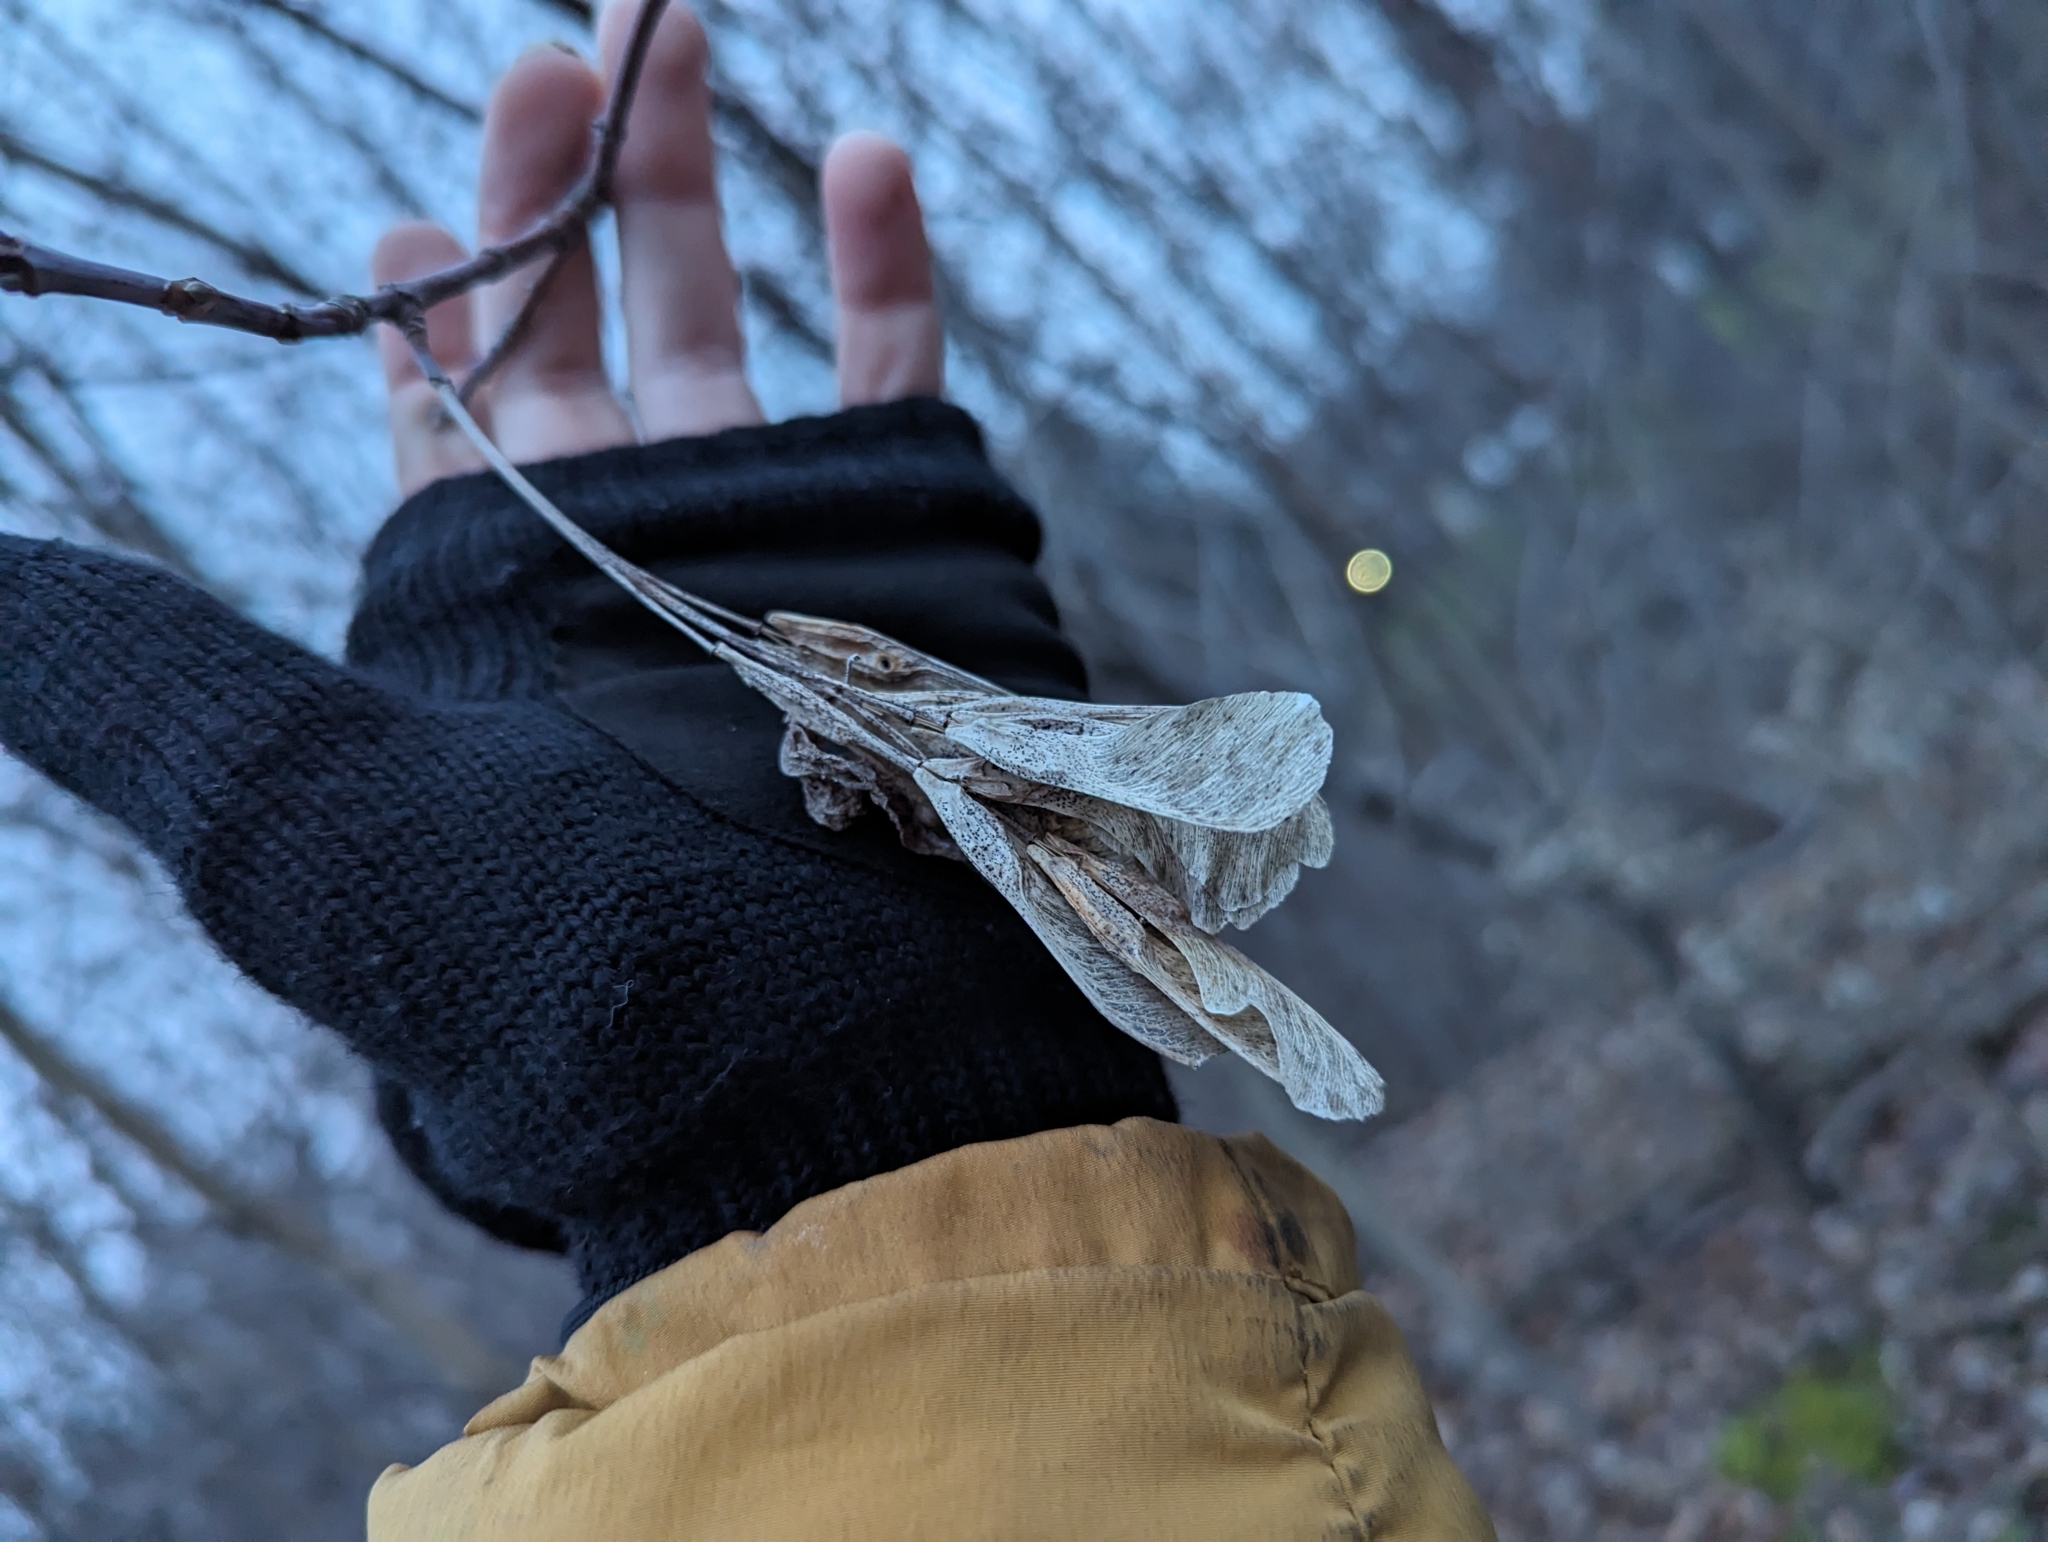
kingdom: Plantae
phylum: Tracheophyta
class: Magnoliopsida
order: Sapindales
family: Sapindaceae
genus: Acer
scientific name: Acer negundo
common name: Ashleaf maple
